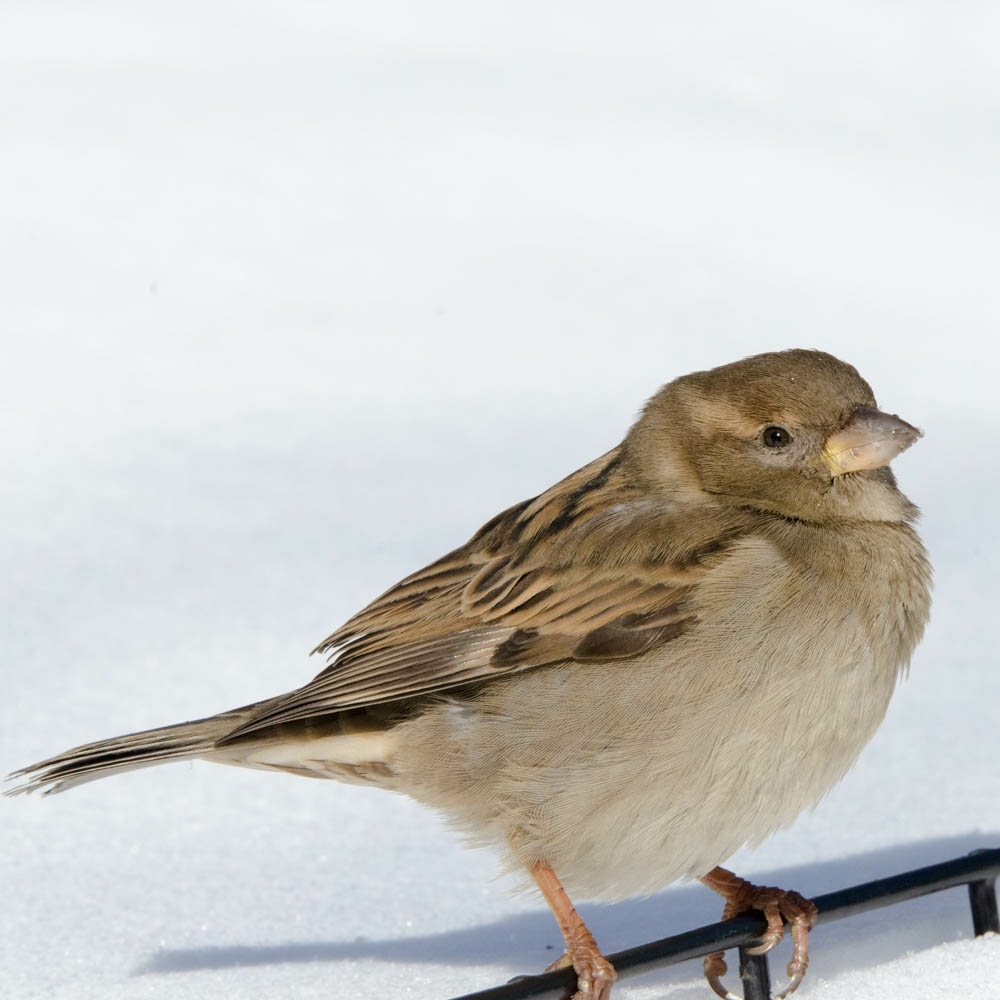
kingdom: Animalia
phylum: Chordata
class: Aves
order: Passeriformes
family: Passeridae
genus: Passer
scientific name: Passer domesticus
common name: House sparrow
